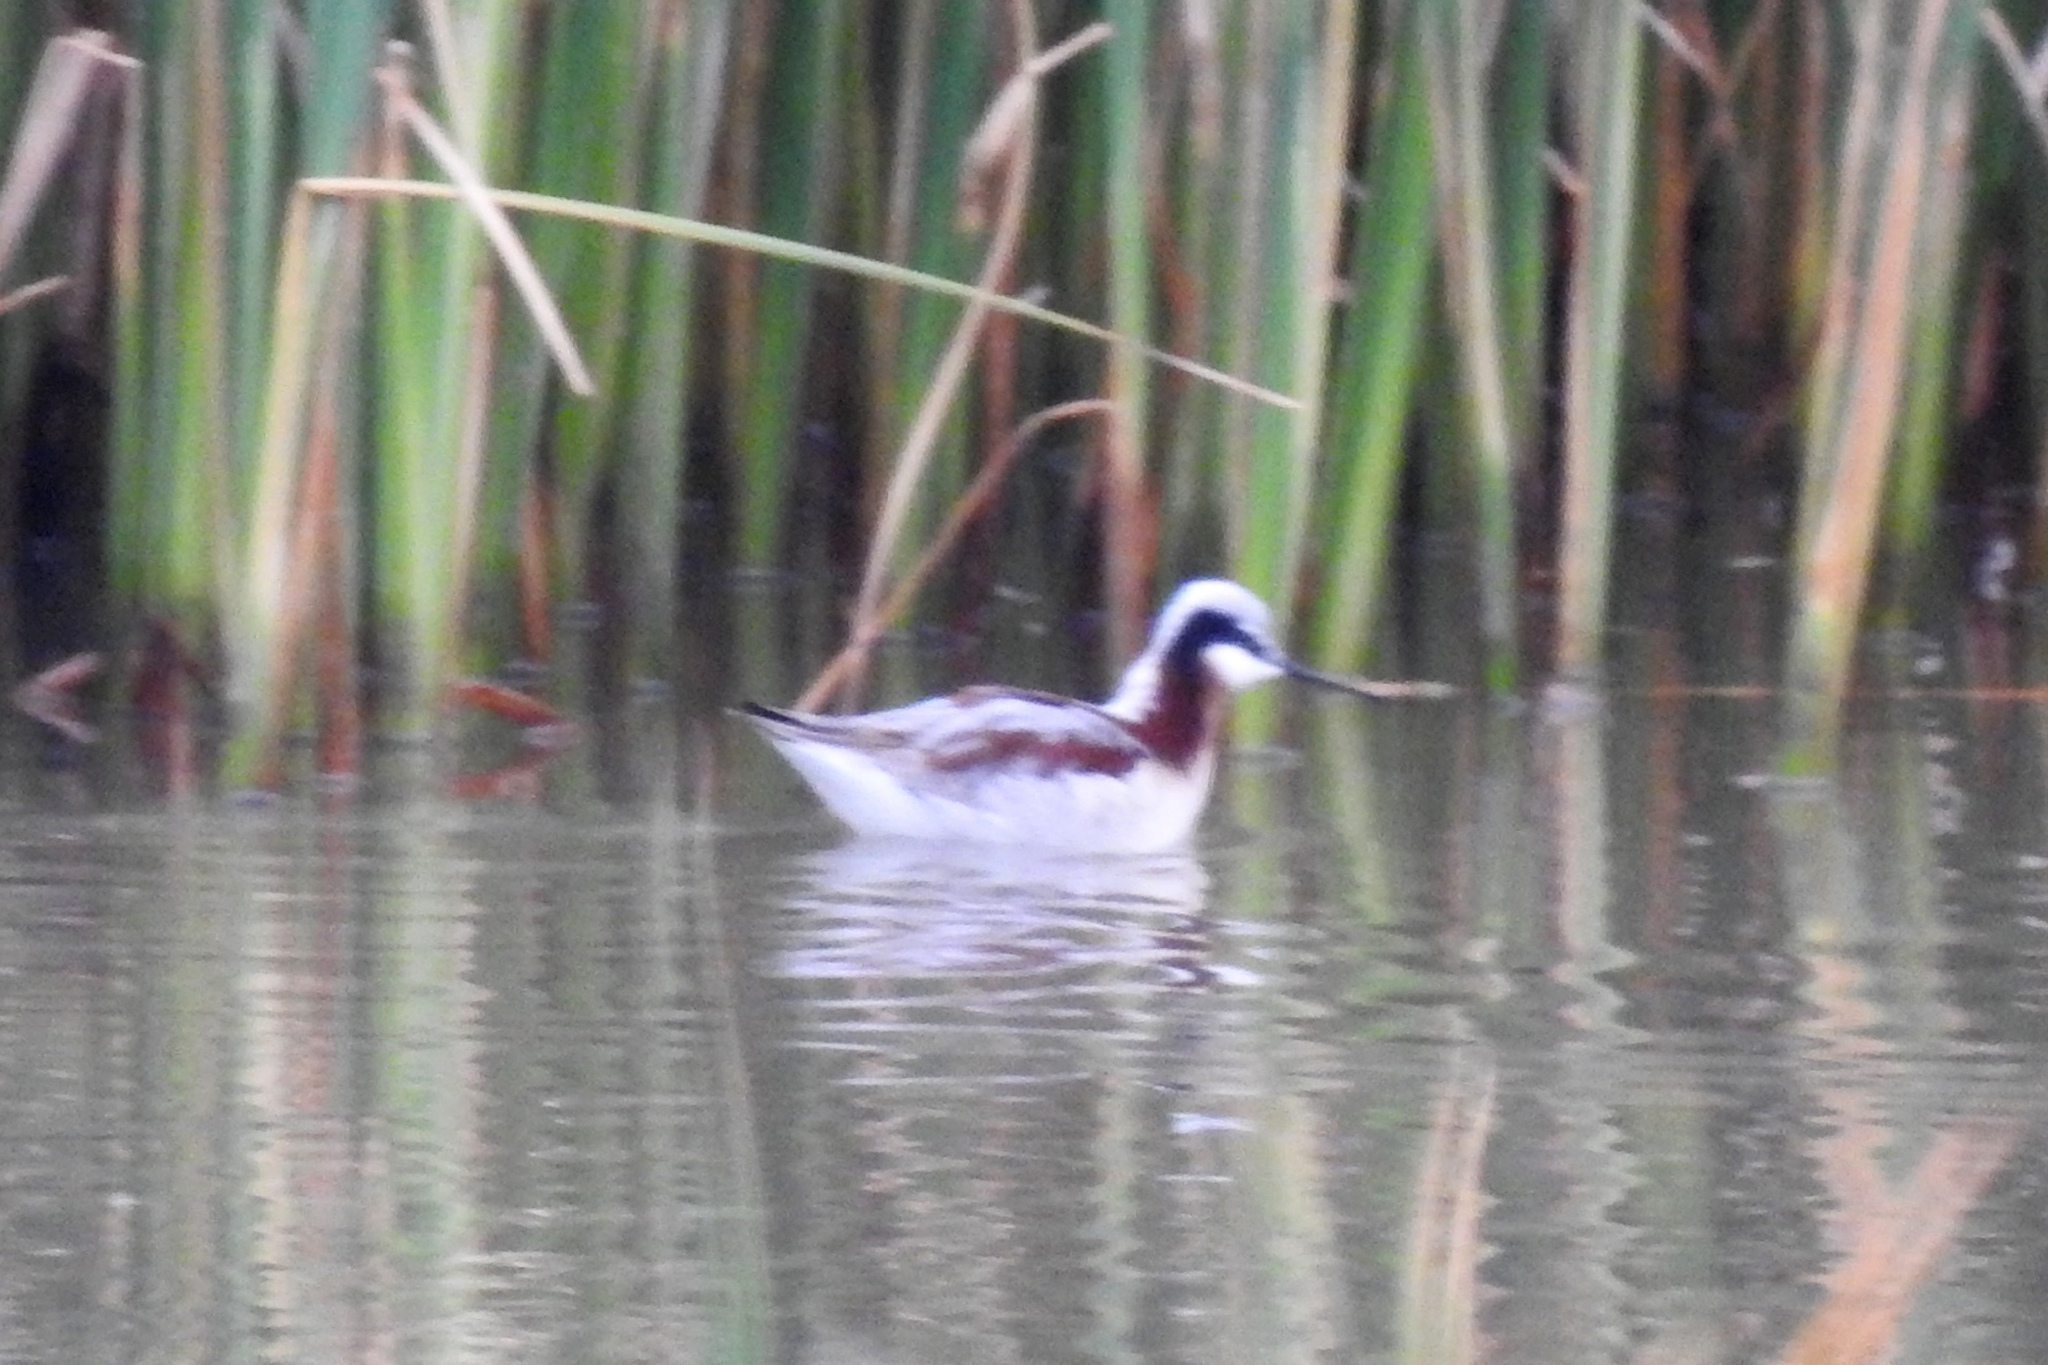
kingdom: Animalia
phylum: Chordata
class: Aves
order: Charadriiformes
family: Scolopacidae
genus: Phalaropus
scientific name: Phalaropus tricolor
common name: Wilson's phalarope
